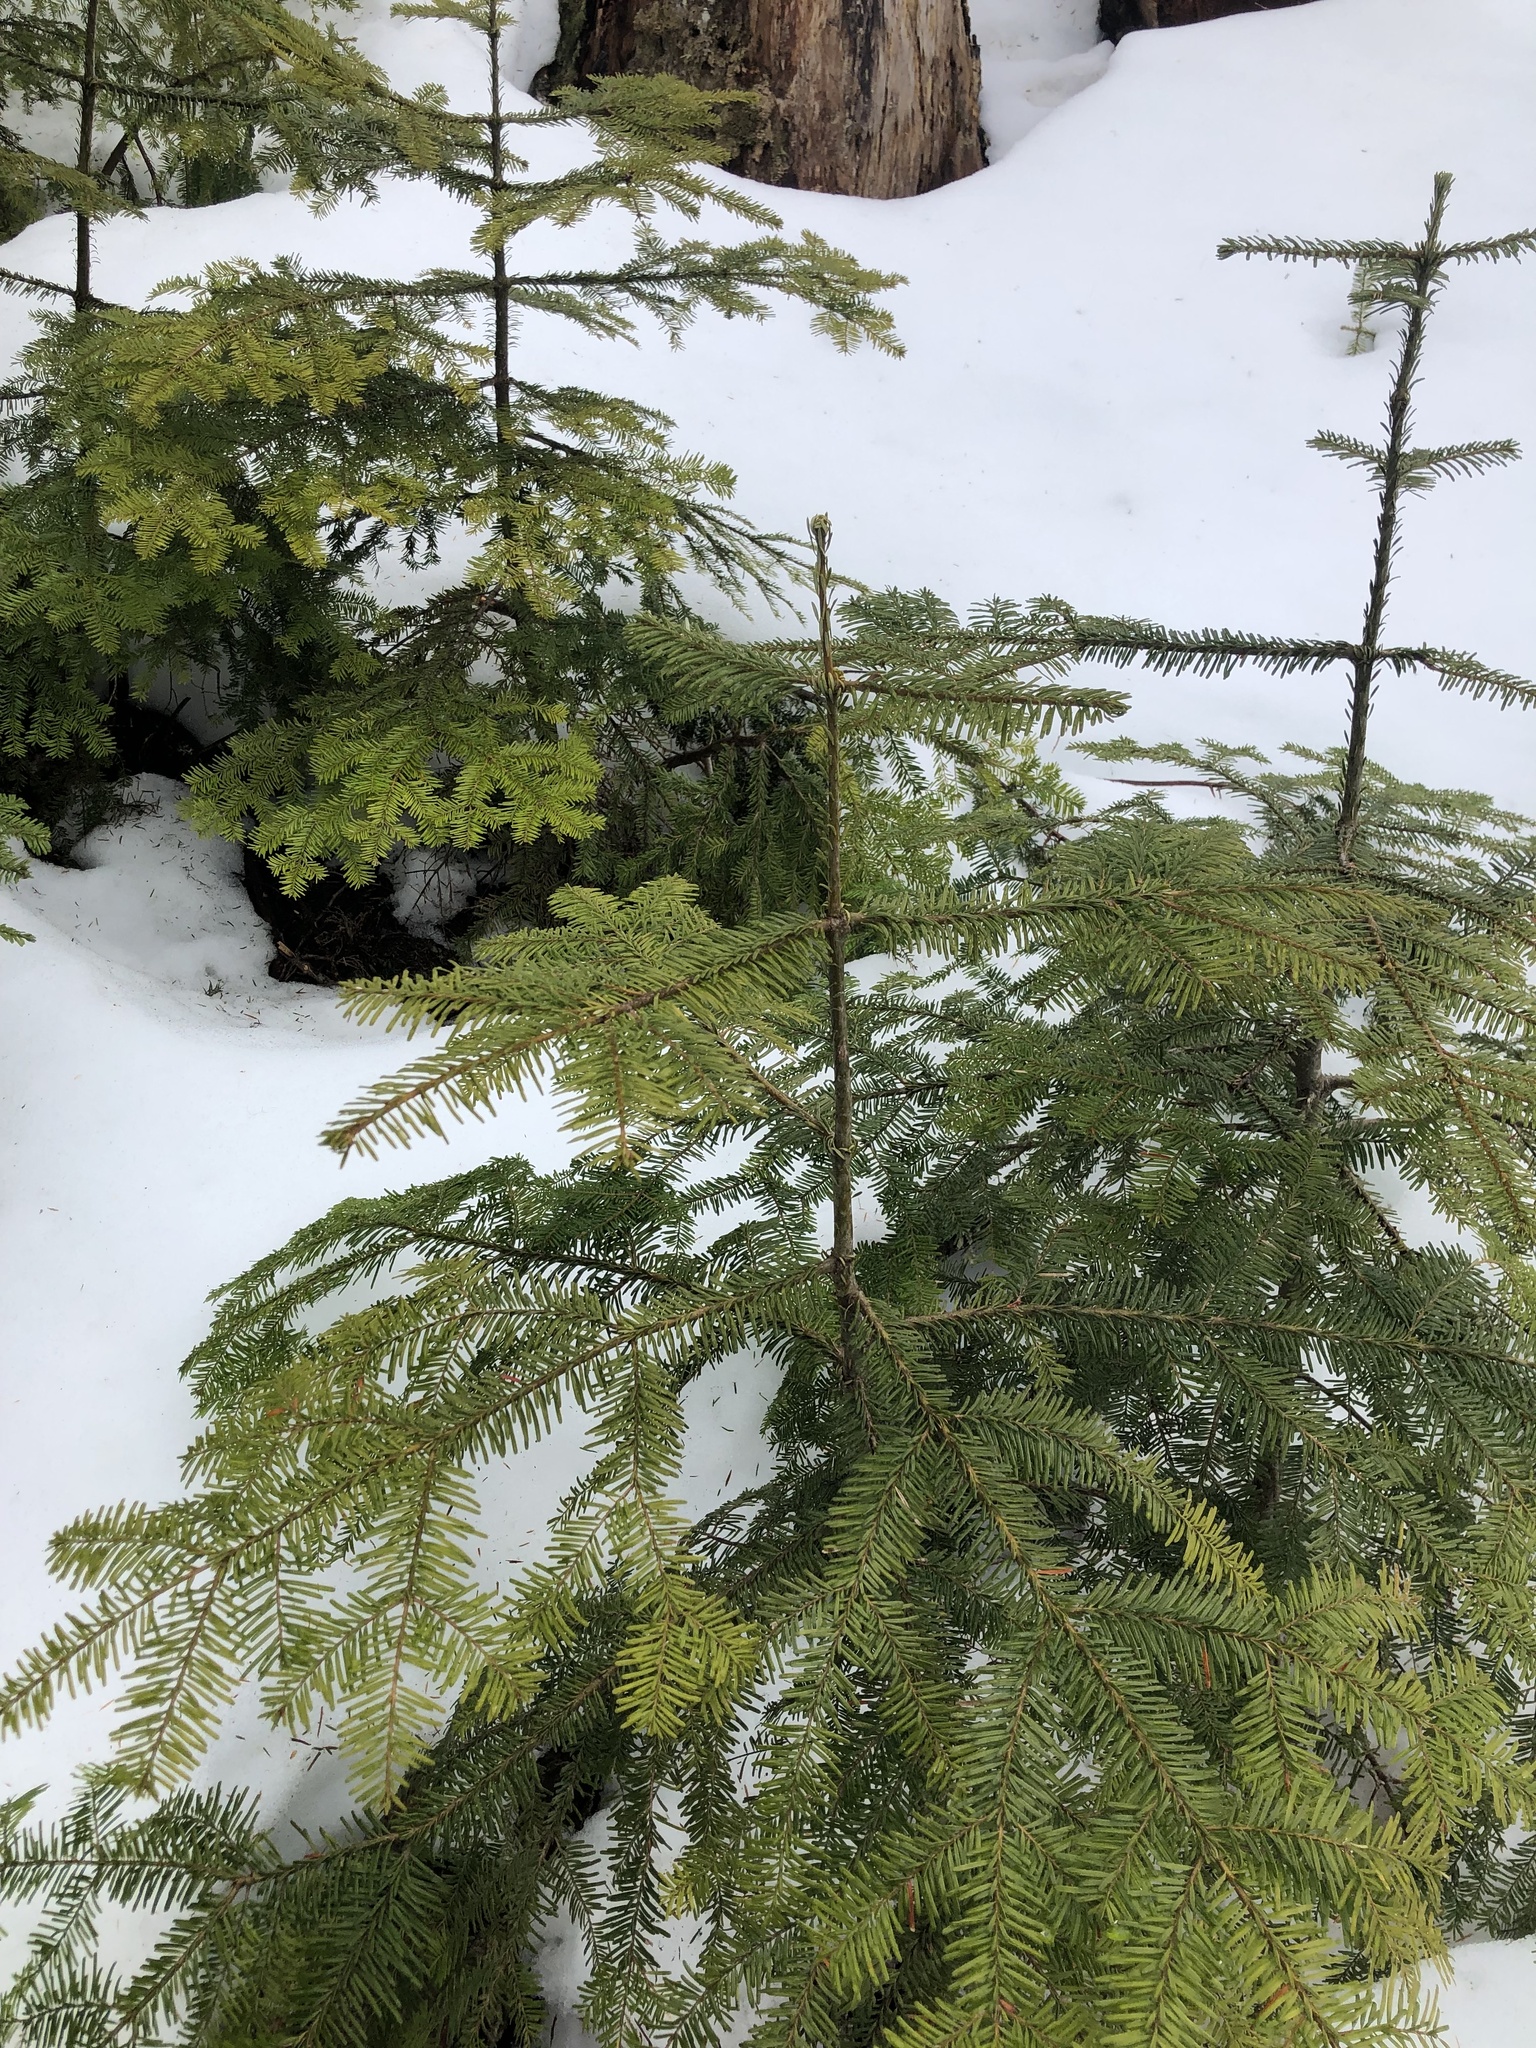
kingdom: Plantae
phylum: Tracheophyta
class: Pinopsida
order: Pinales
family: Pinaceae
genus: Abies
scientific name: Abies amabilis
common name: Pacific silver fir
